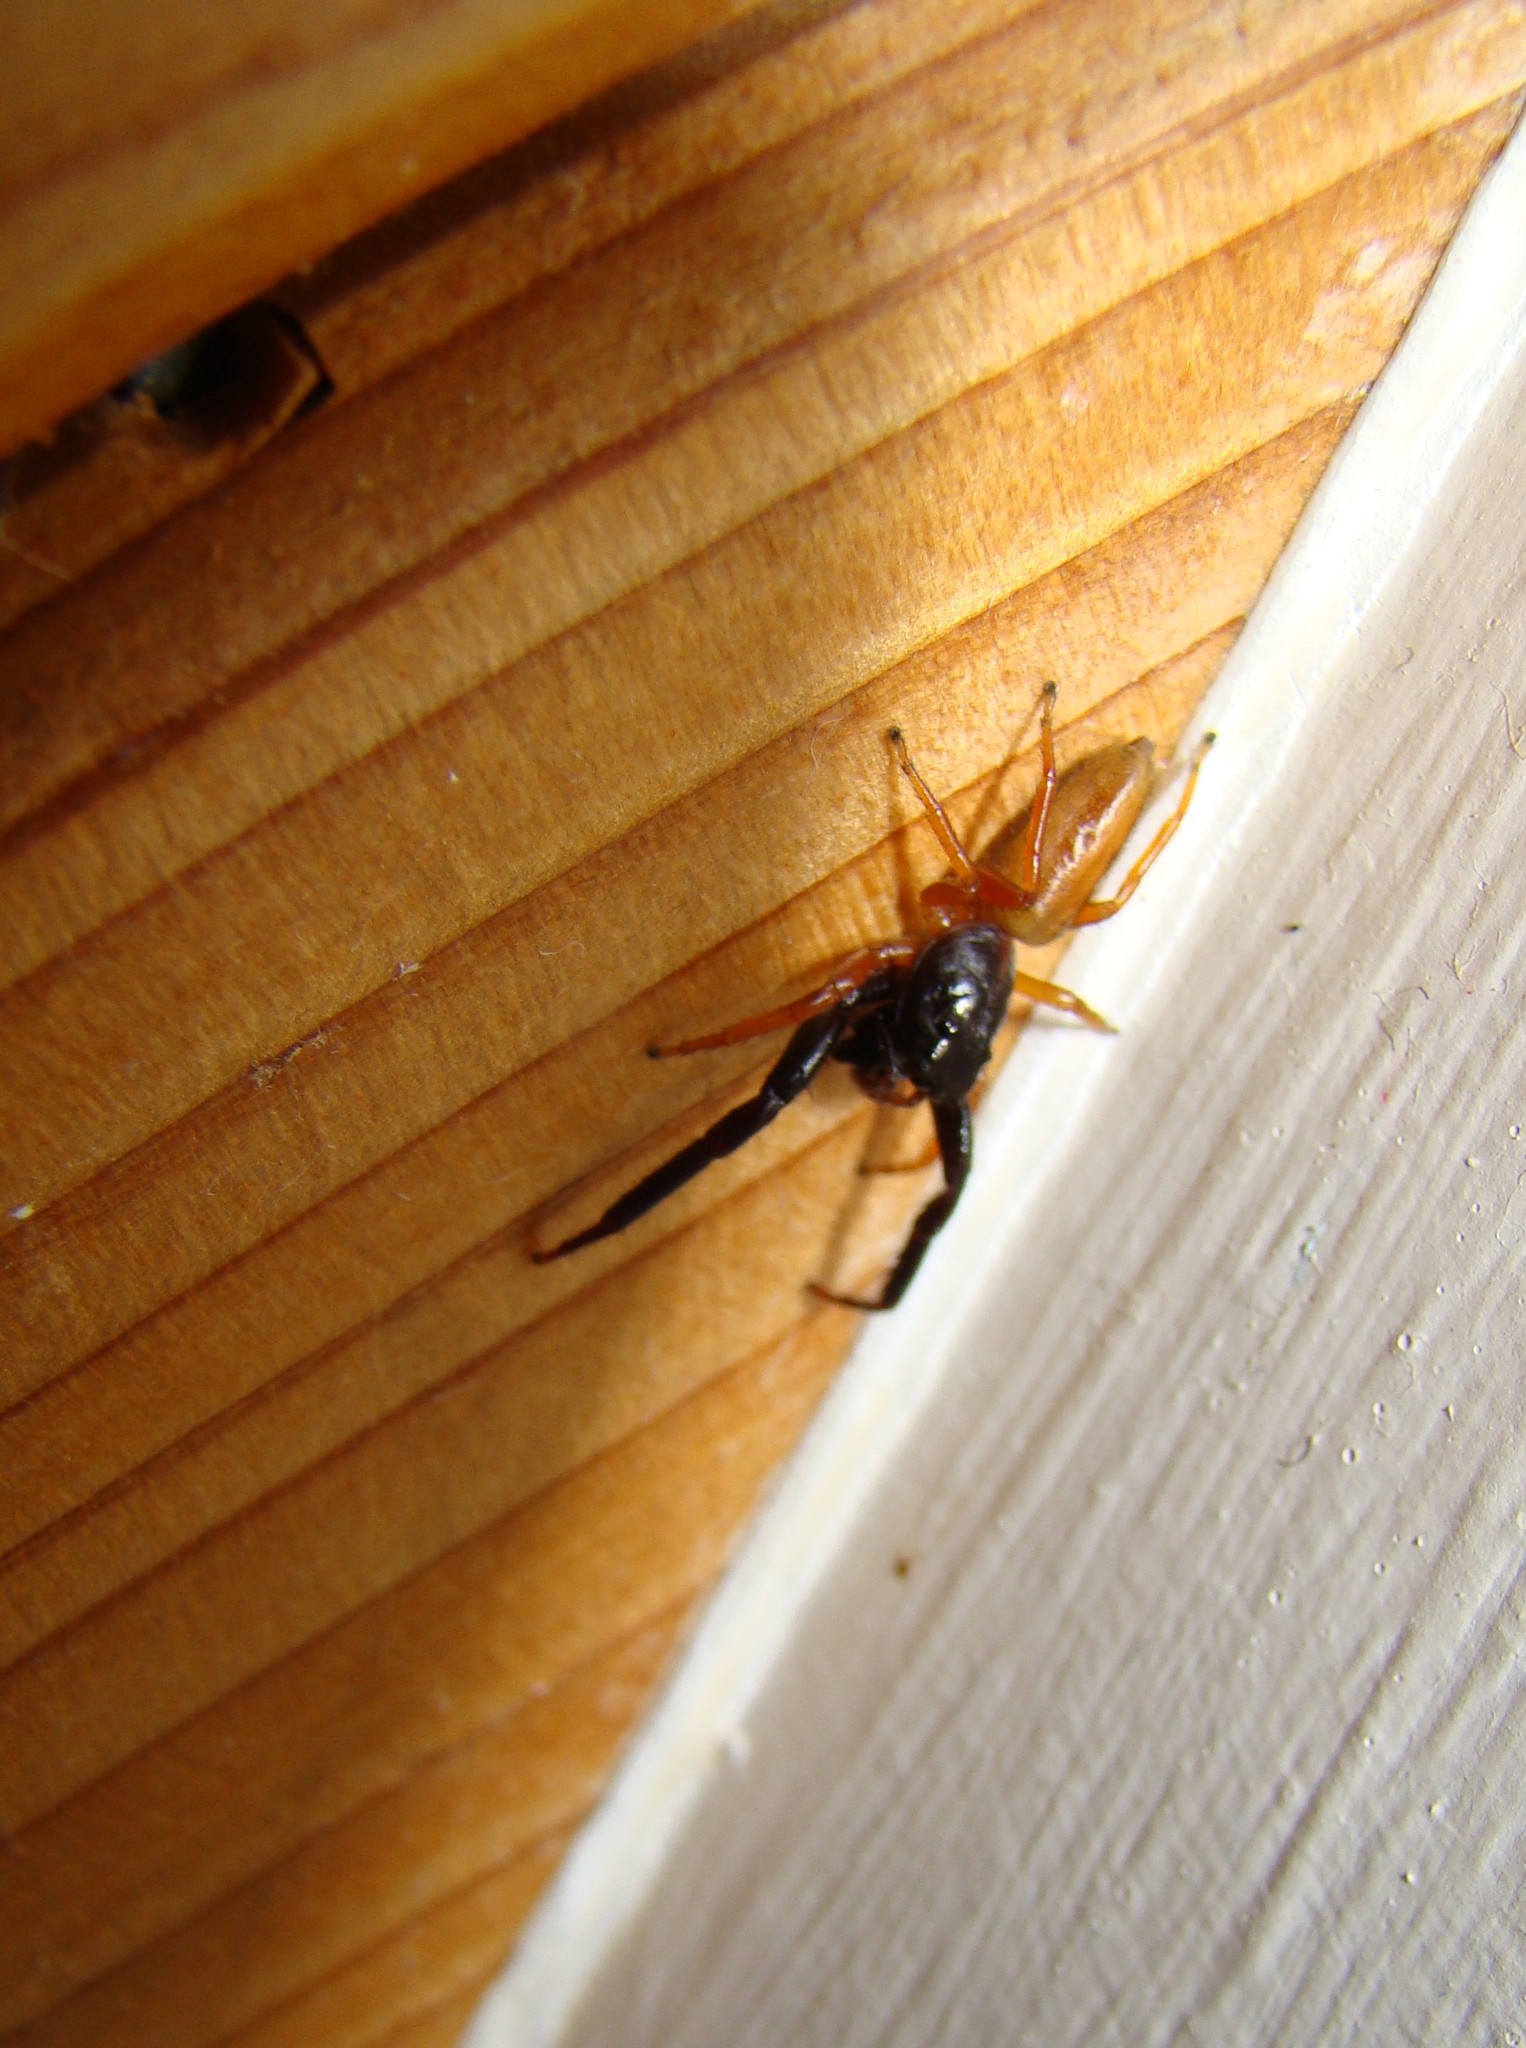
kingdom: Animalia
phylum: Arthropoda
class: Arachnida
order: Araneae
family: Salticidae
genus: Trite
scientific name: Trite planiceps
